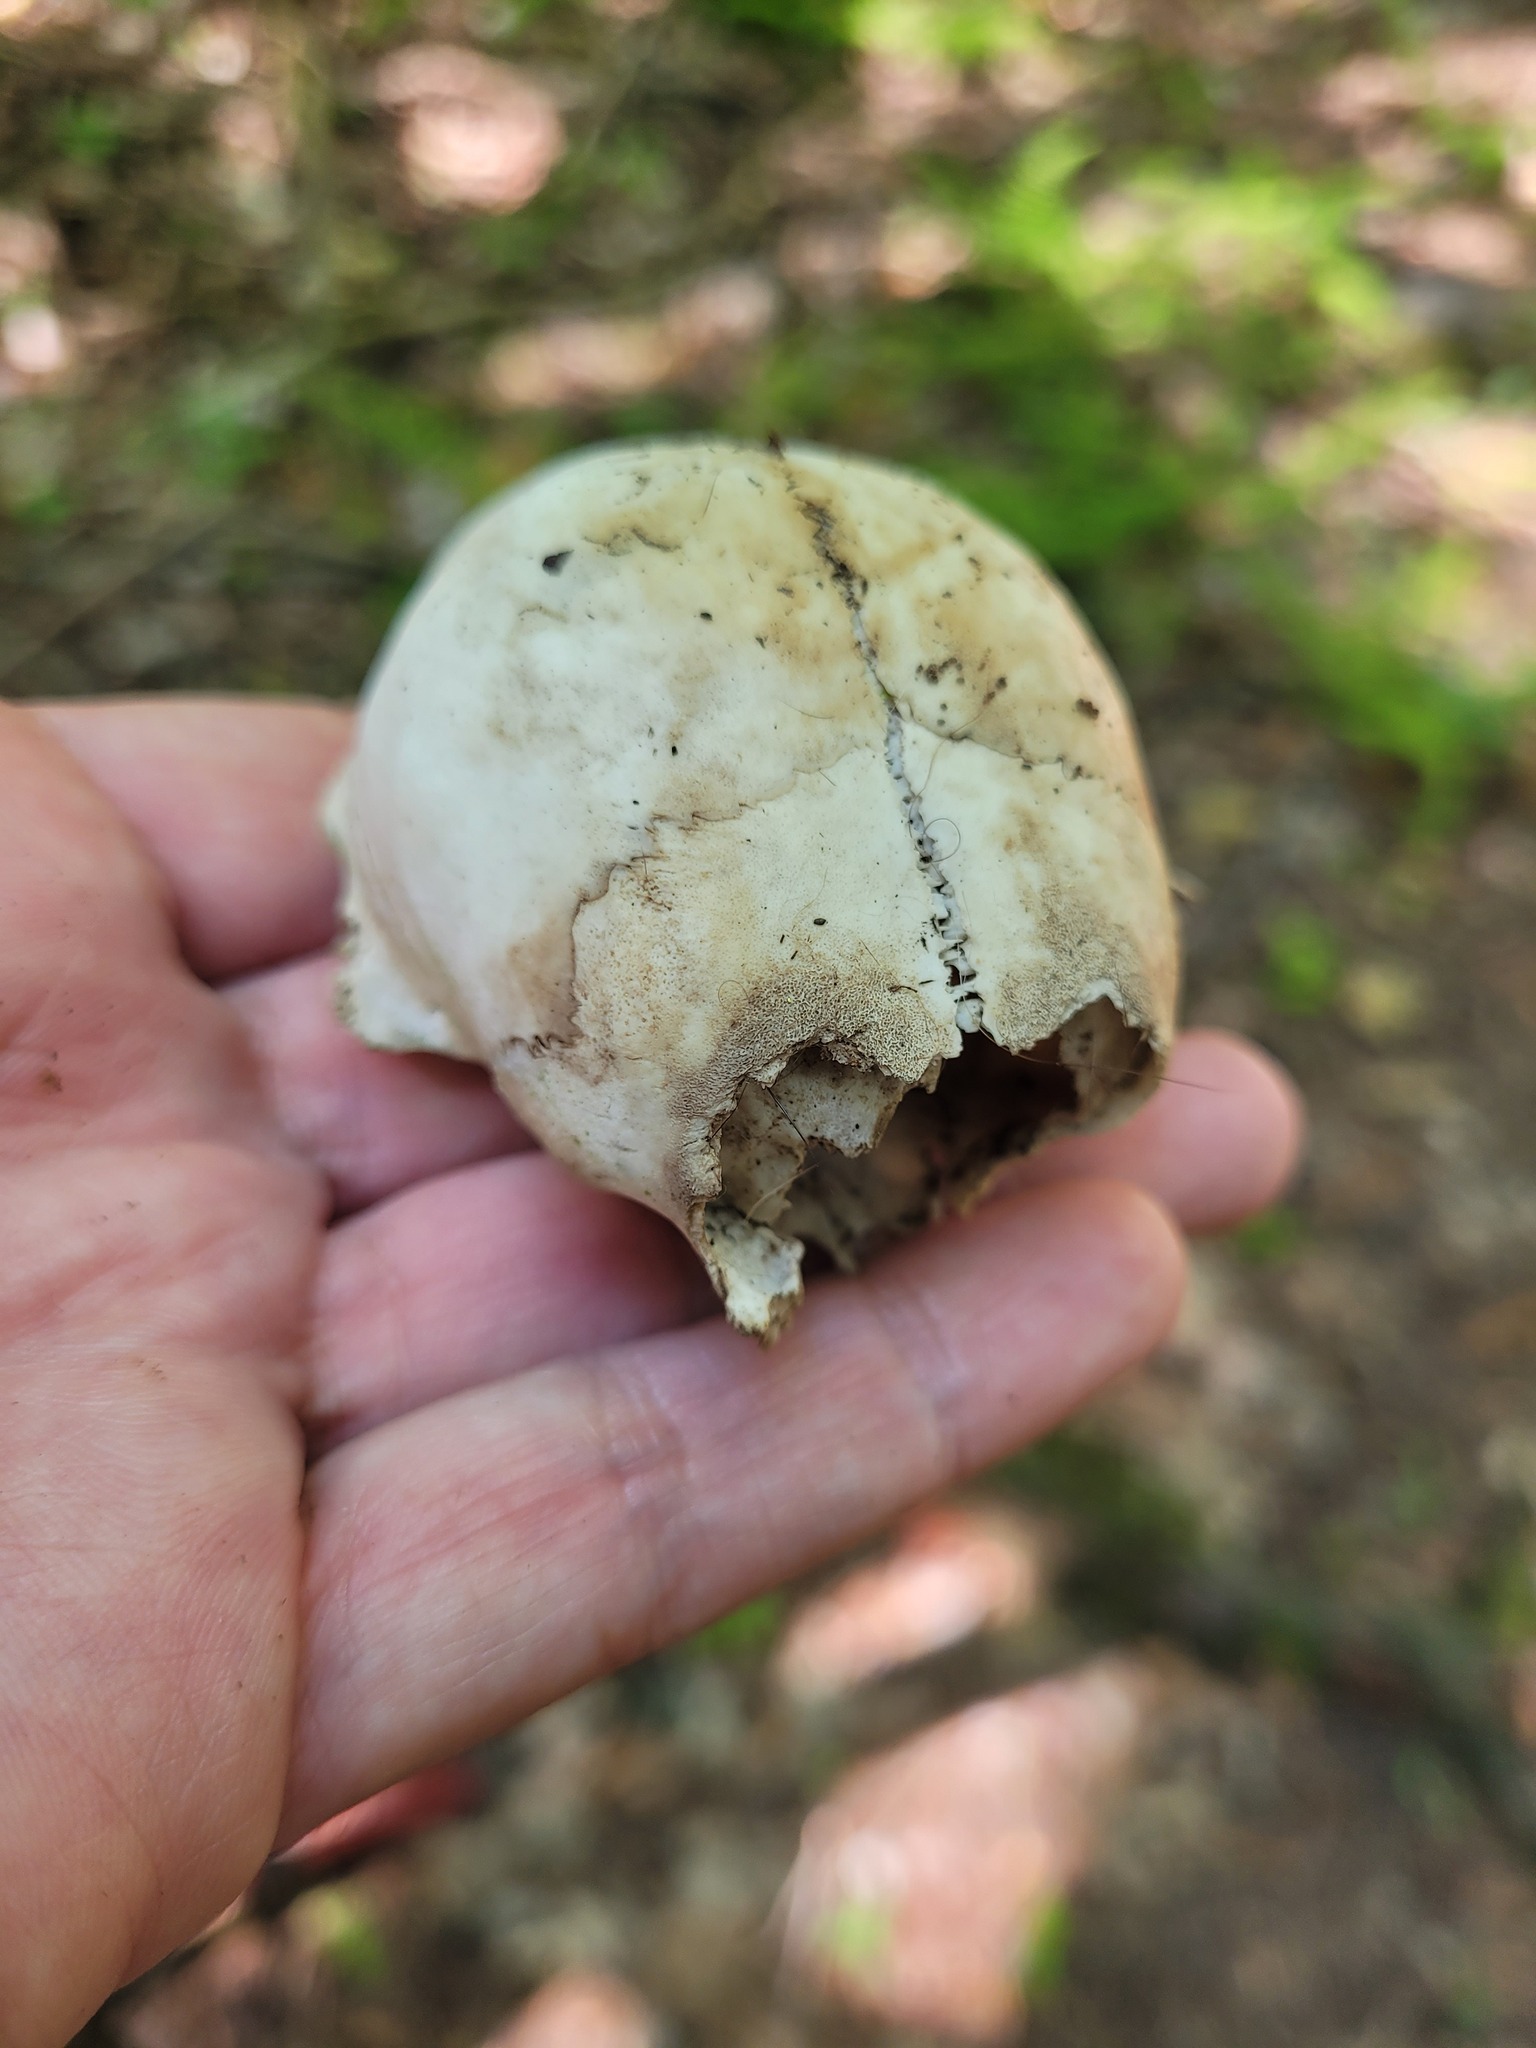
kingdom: Animalia
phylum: Chordata
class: Mammalia
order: Carnivora
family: Procyonidae
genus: Procyon
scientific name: Procyon lotor
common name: Raccoon
